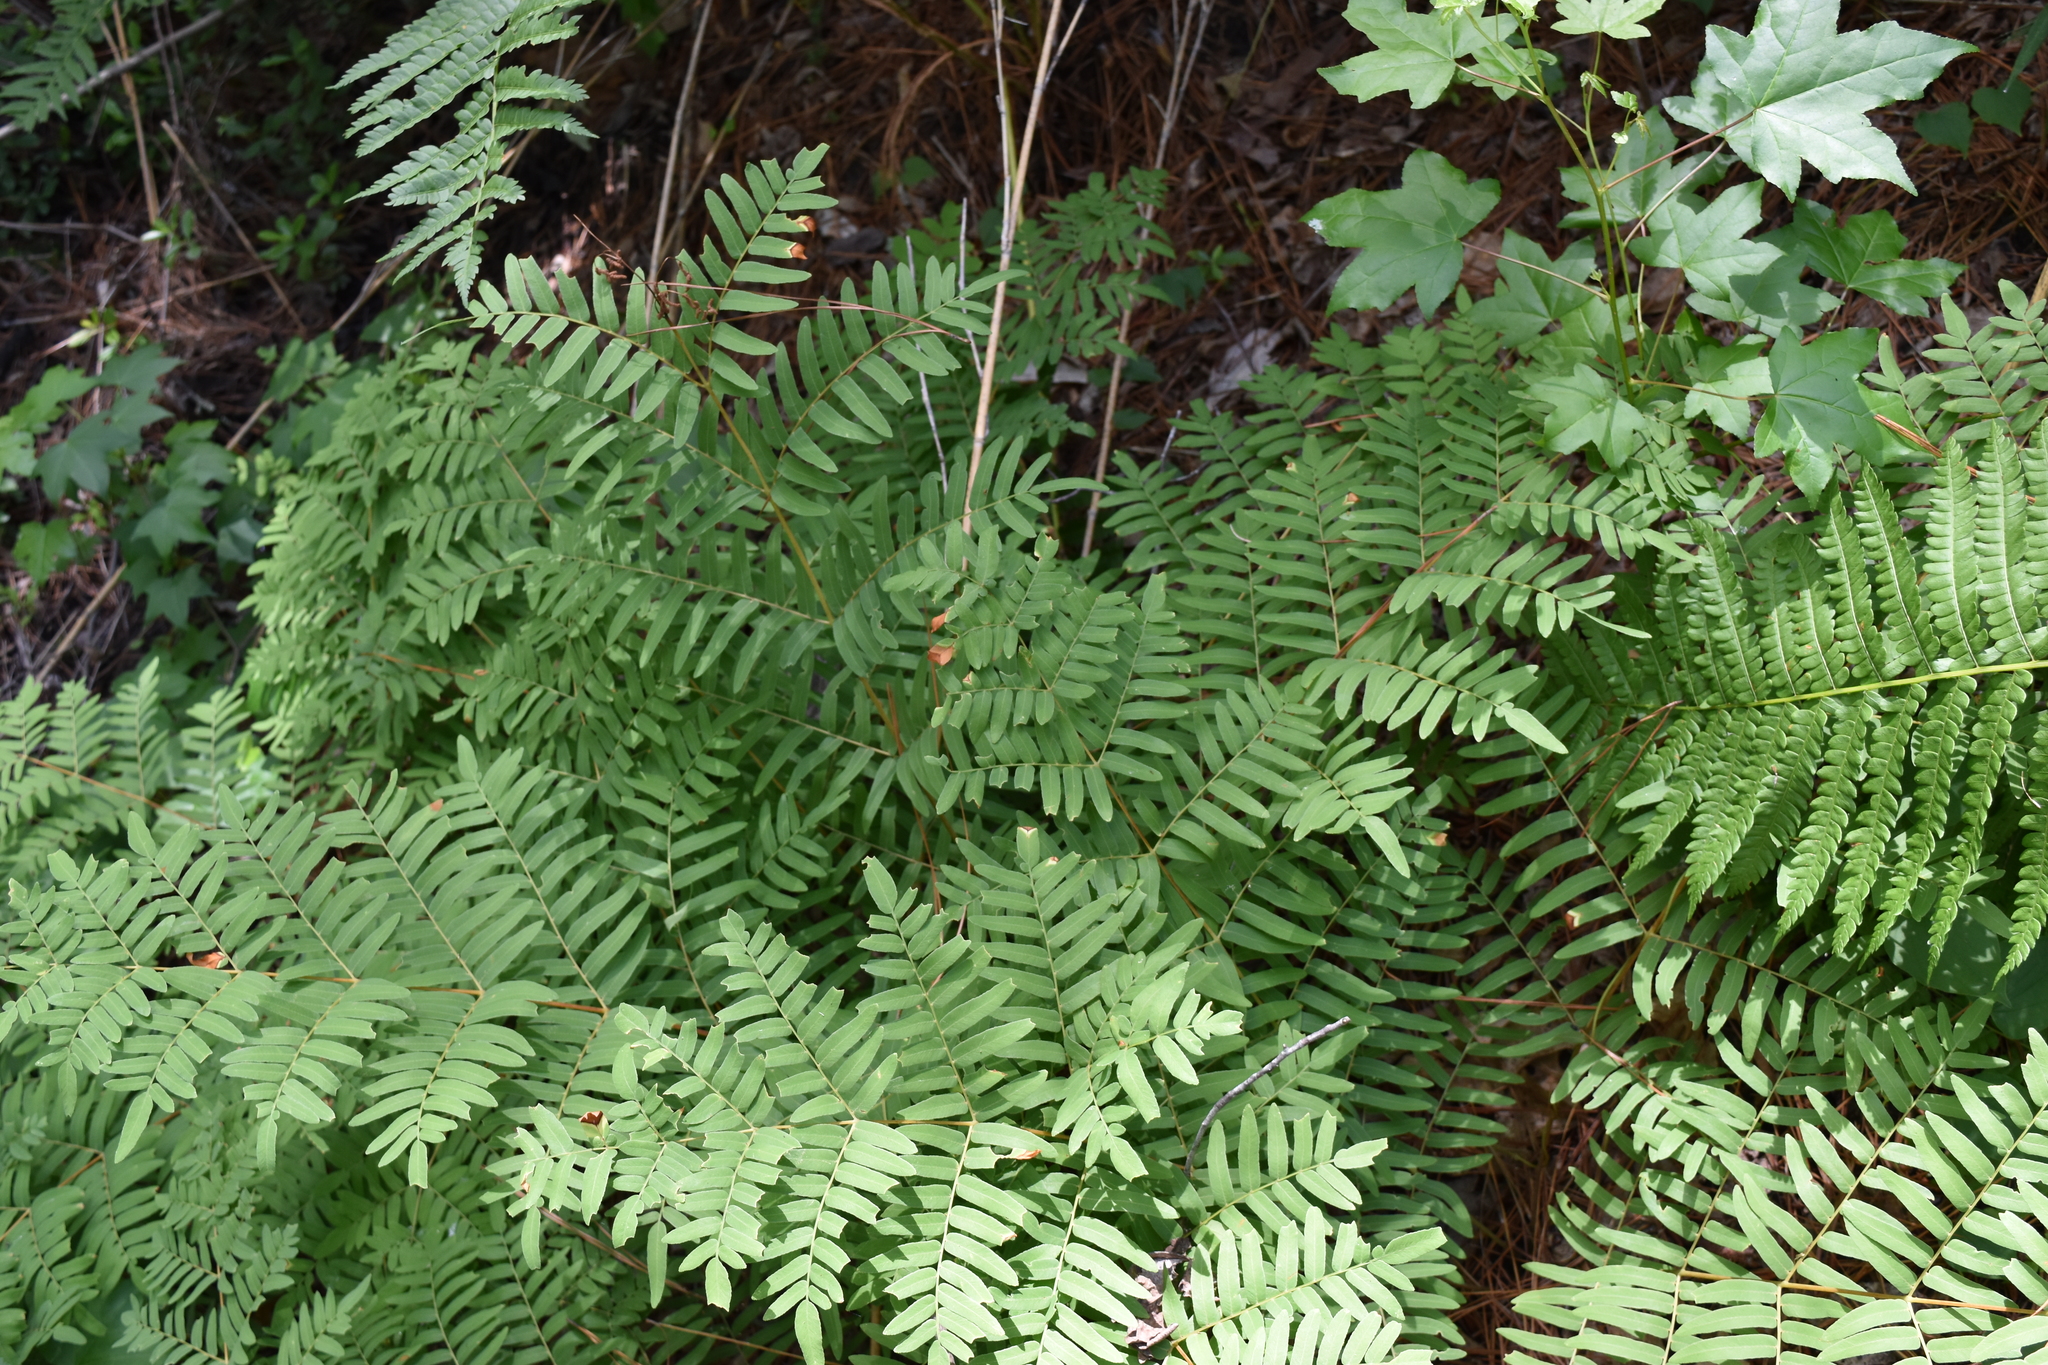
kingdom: Plantae
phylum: Tracheophyta
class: Polypodiopsida
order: Osmundales
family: Osmundaceae
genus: Osmunda
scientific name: Osmunda spectabilis
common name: American royal fern
